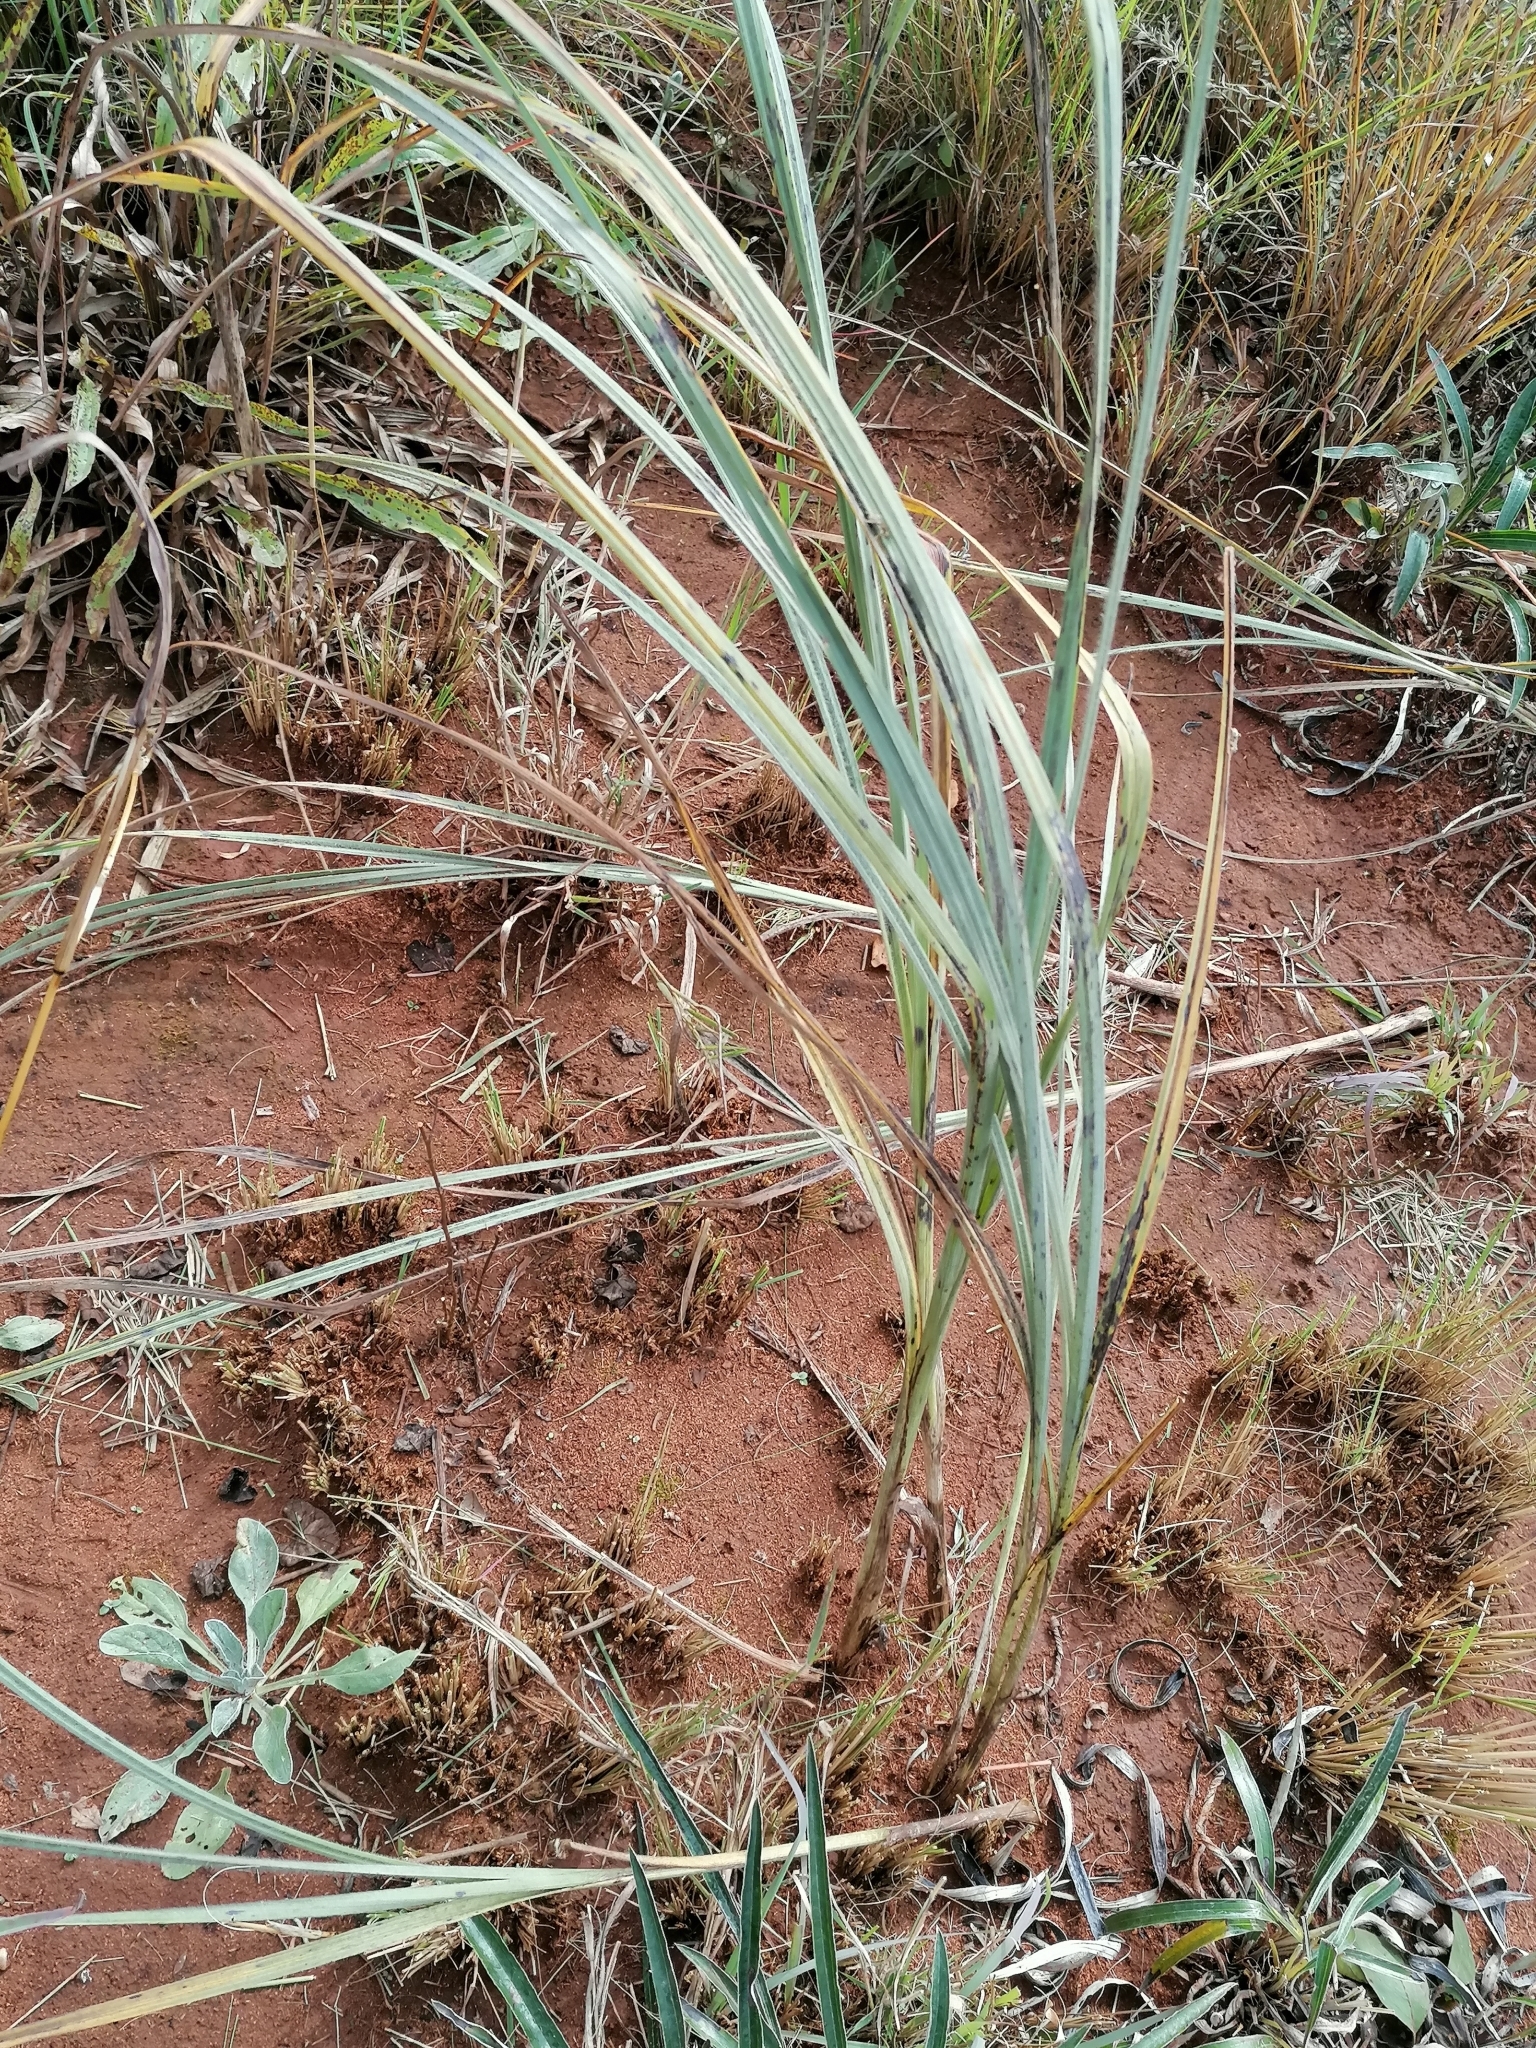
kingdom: Plantae
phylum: Tracheophyta
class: Liliopsida
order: Asparagales
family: Hypoxidaceae
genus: Hypoxis
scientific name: Hypoxis rigidula
